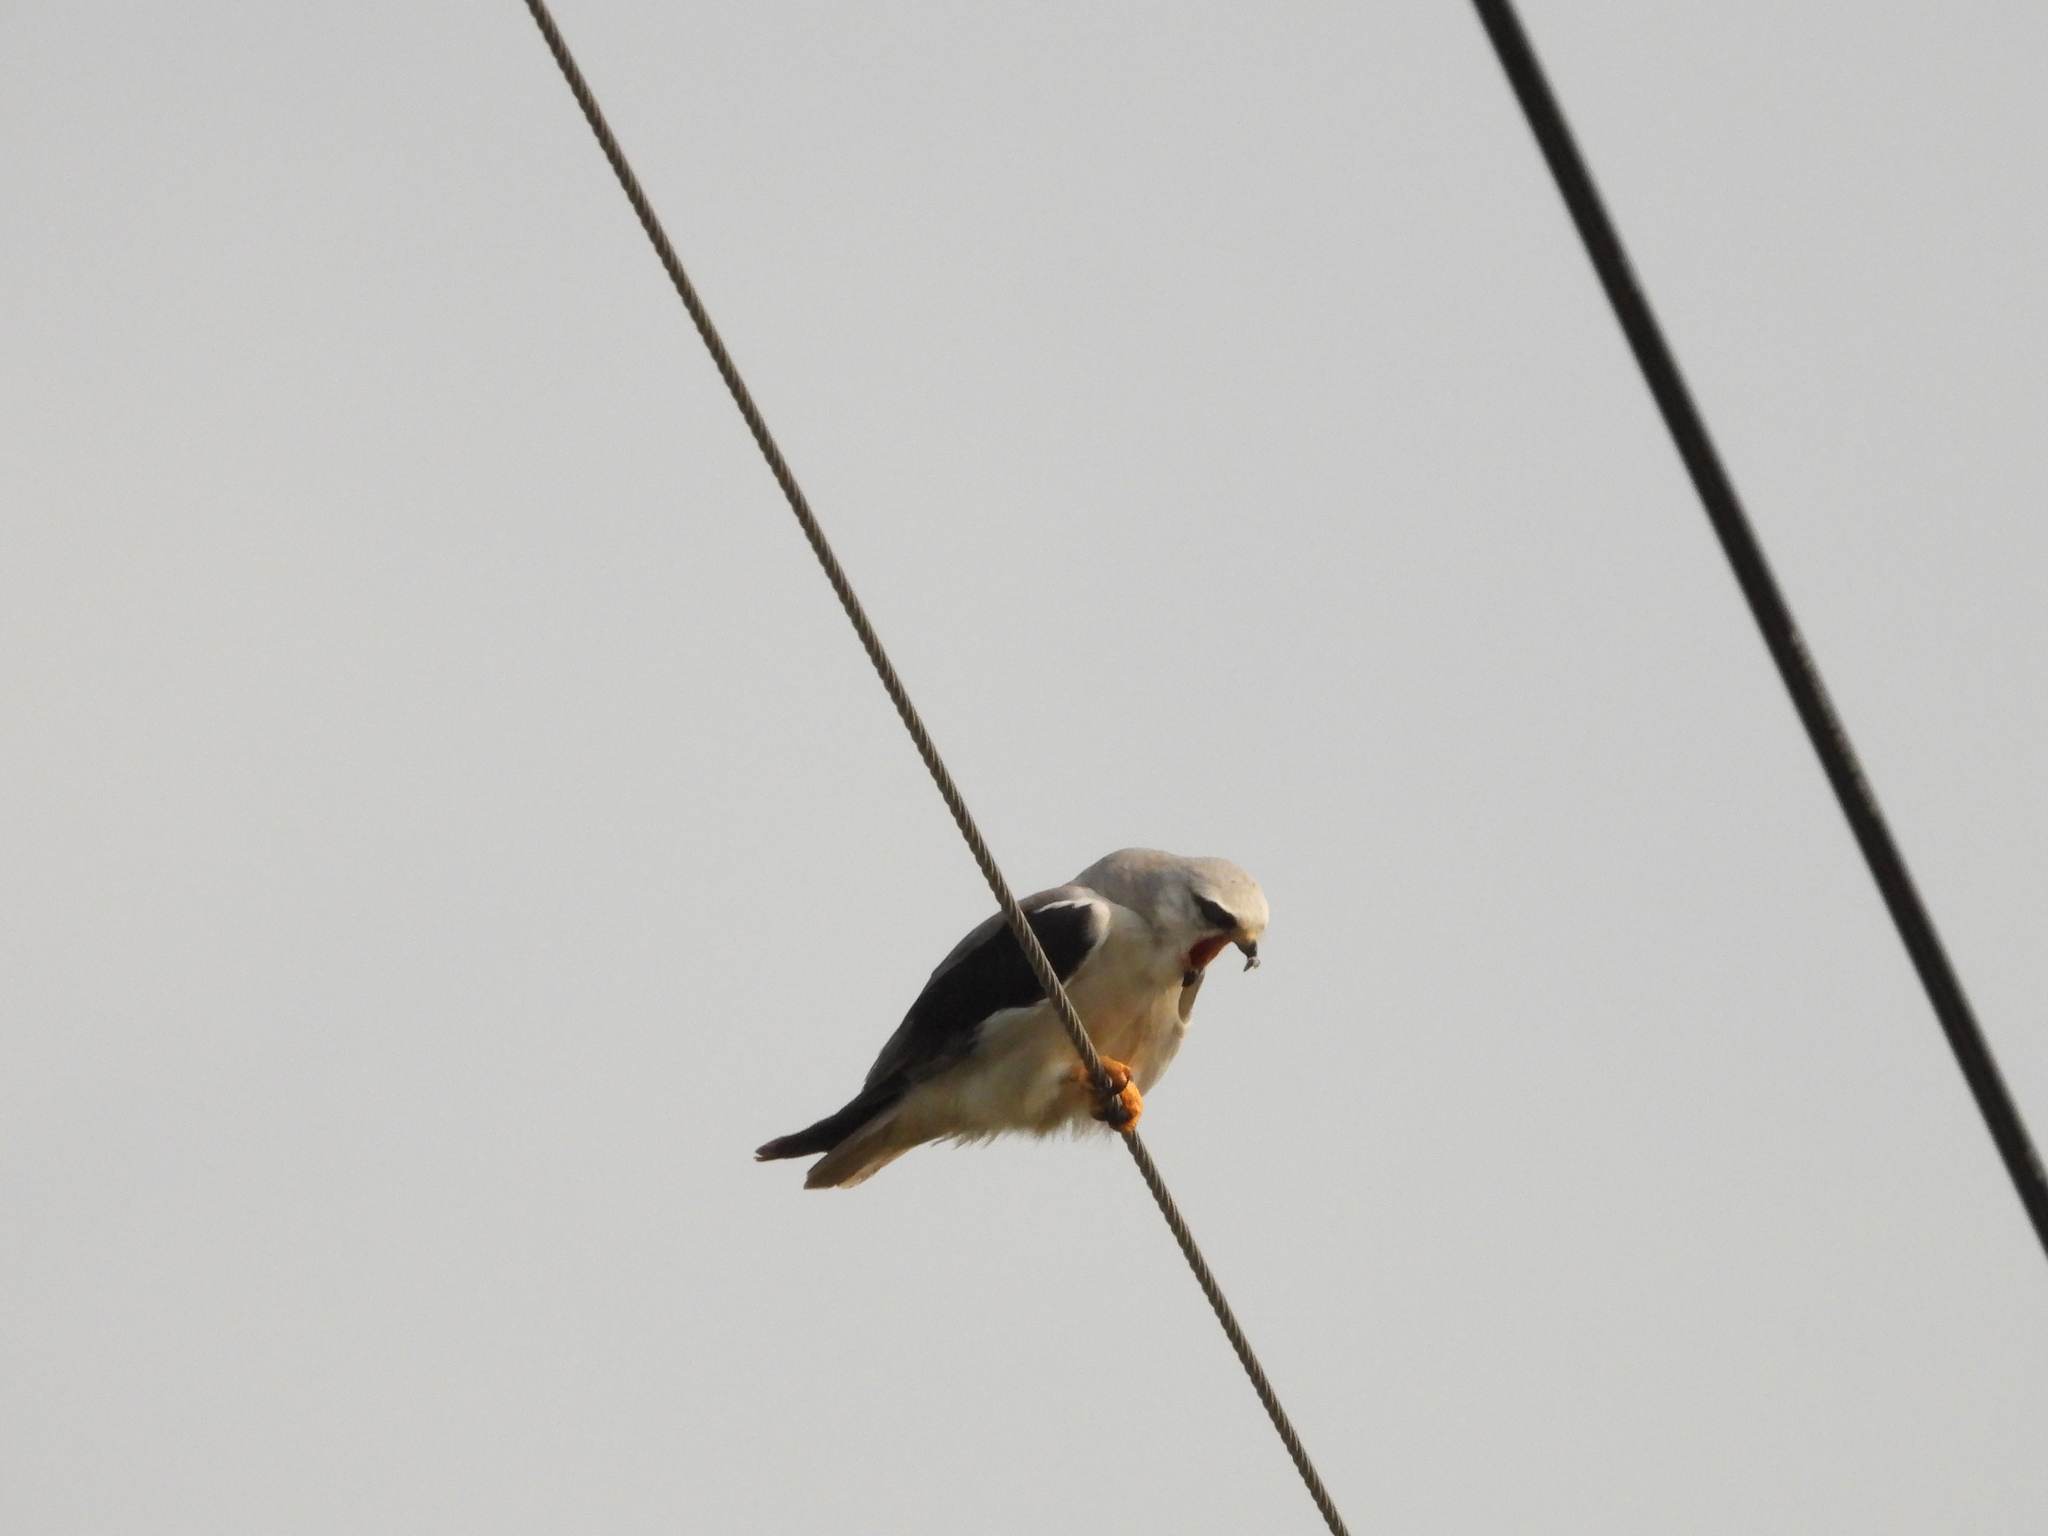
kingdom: Animalia
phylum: Chordata
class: Aves
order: Accipitriformes
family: Accipitridae
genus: Elanus
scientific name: Elanus caeruleus
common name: Black-winged kite
